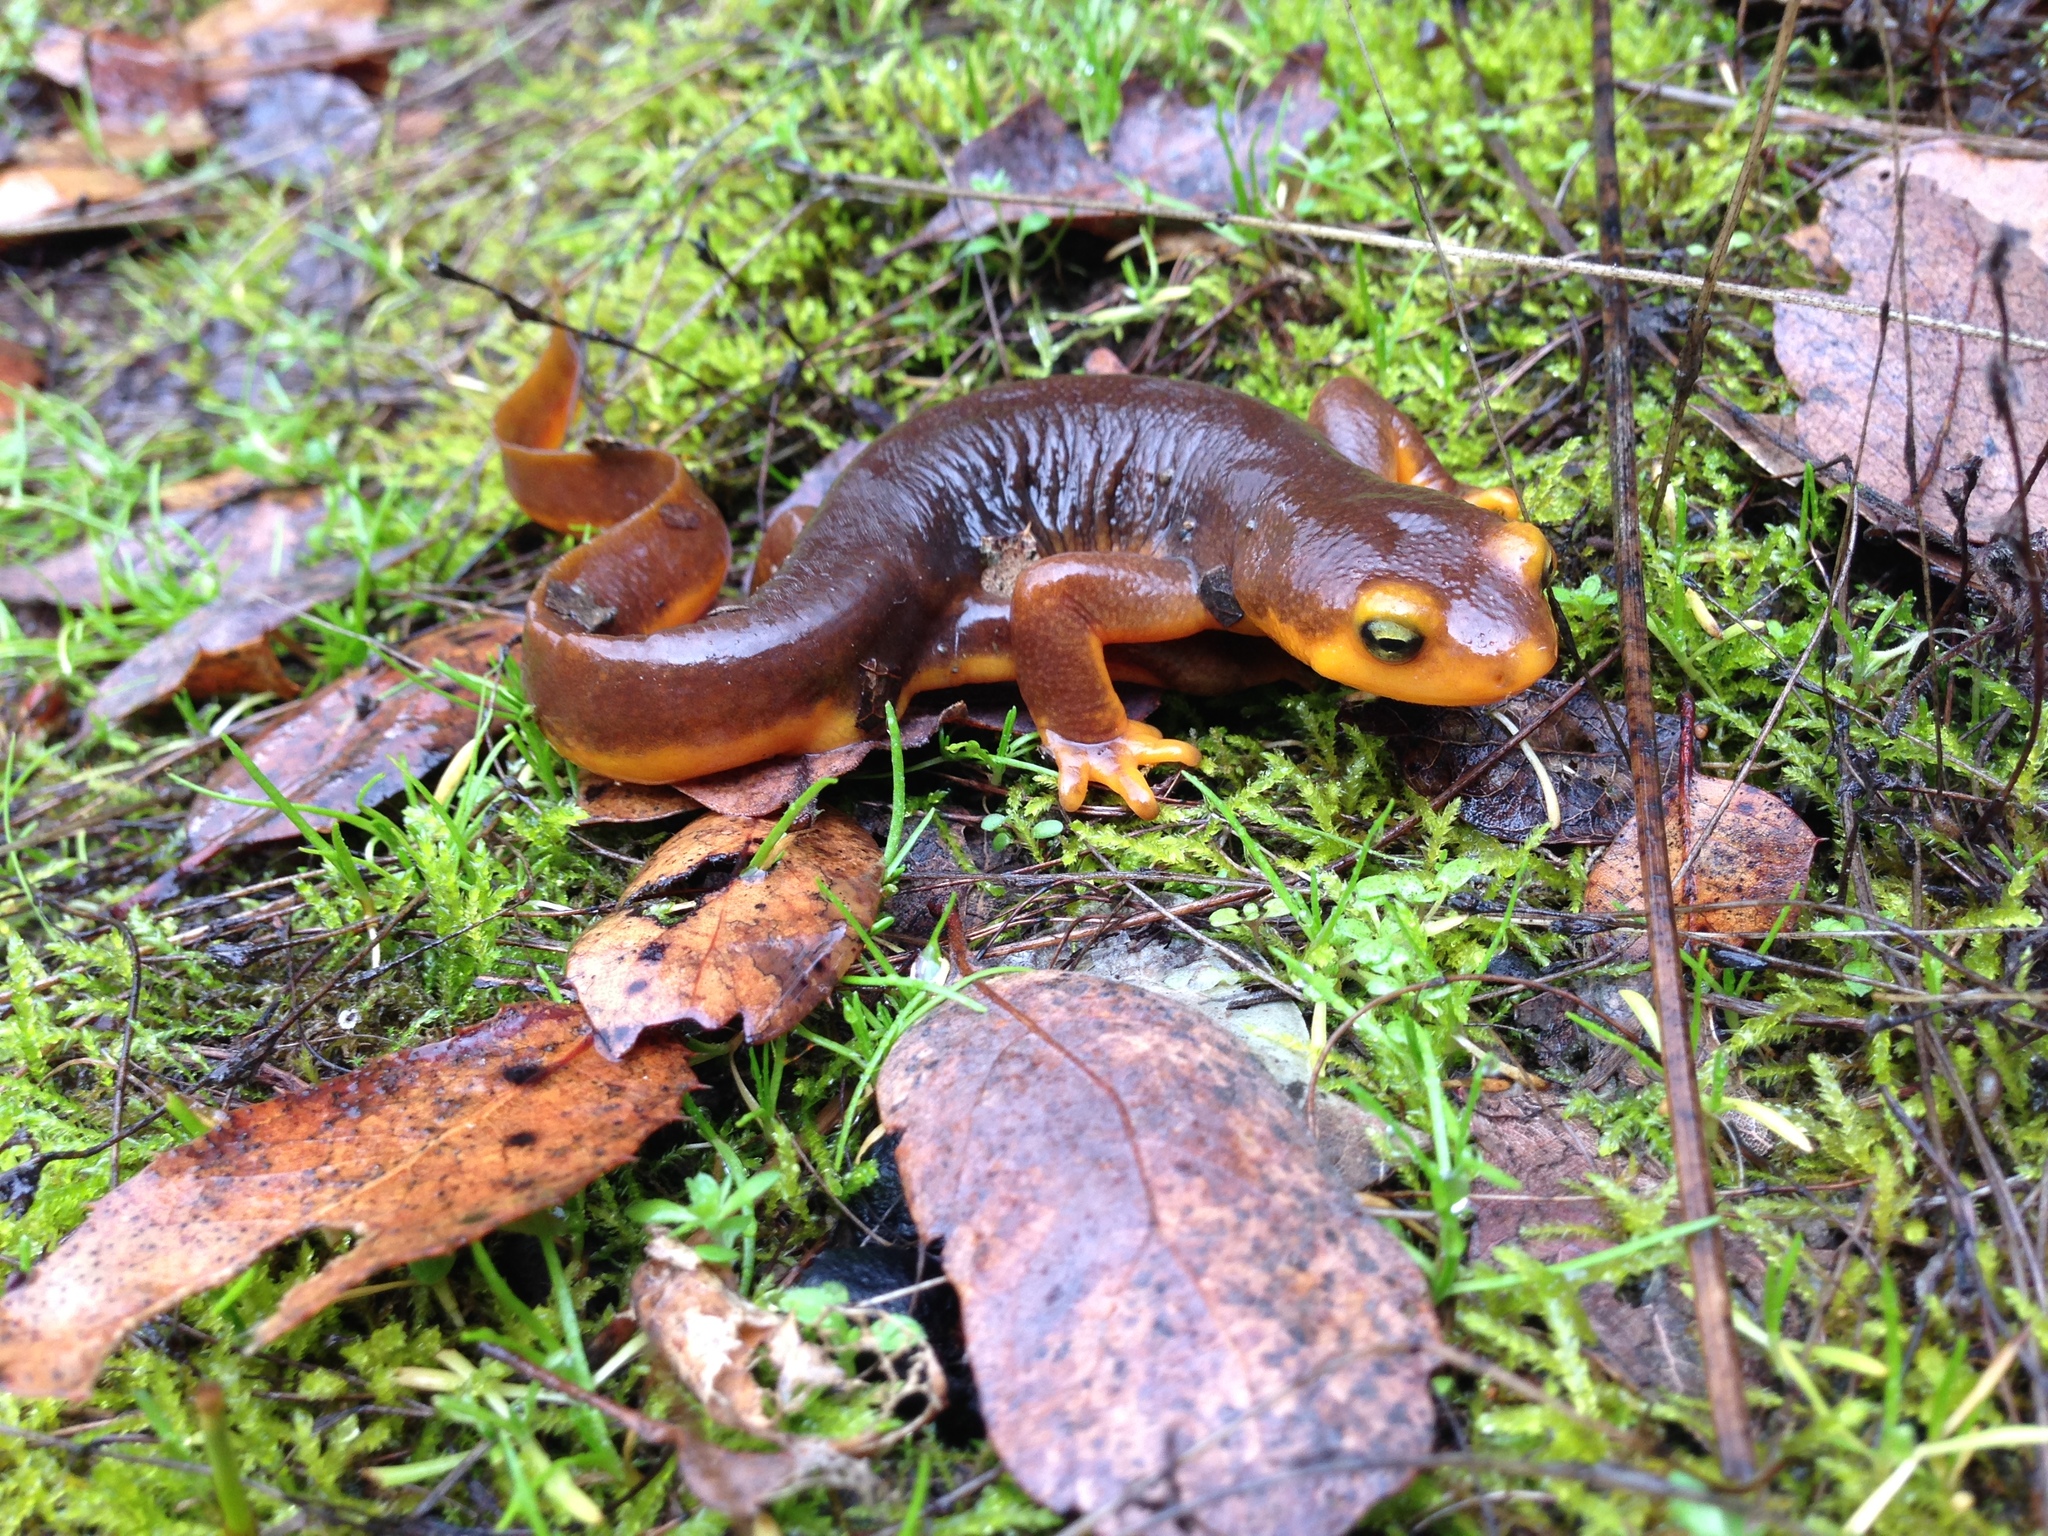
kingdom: Animalia
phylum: Chordata
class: Amphibia
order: Caudata
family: Salamandridae
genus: Taricha
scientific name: Taricha torosa
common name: California newt
